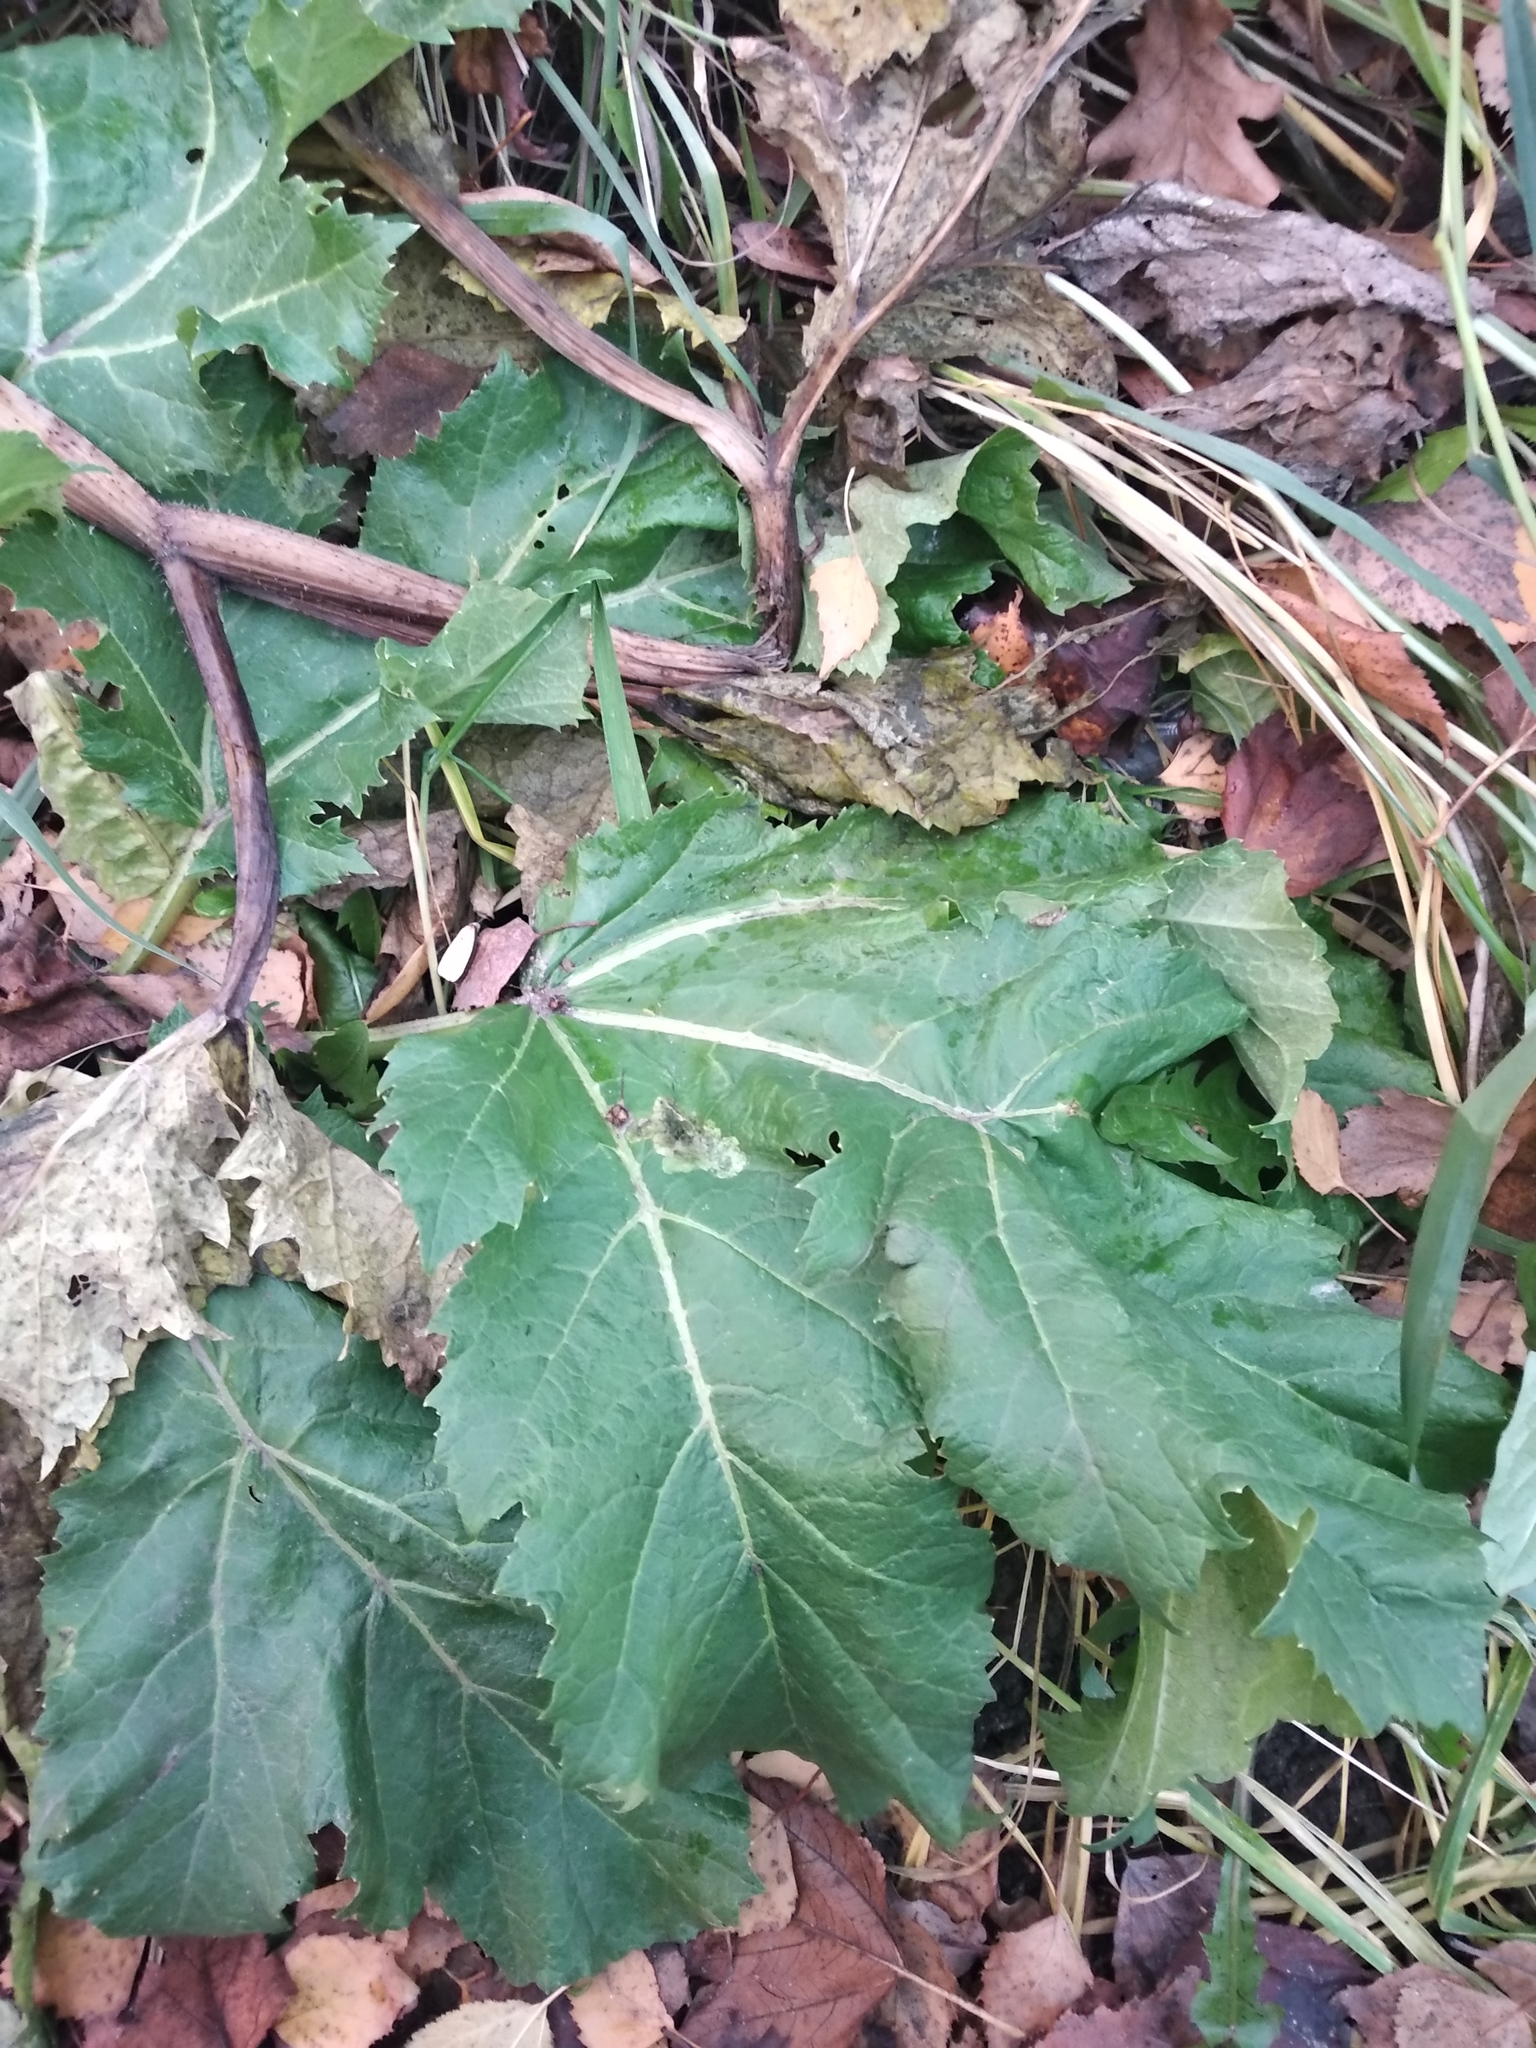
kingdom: Plantae
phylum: Tracheophyta
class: Magnoliopsida
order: Apiales
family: Apiaceae
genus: Heracleum
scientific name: Heracleum sosnowskyi
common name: Sosnowsky's hogweed
